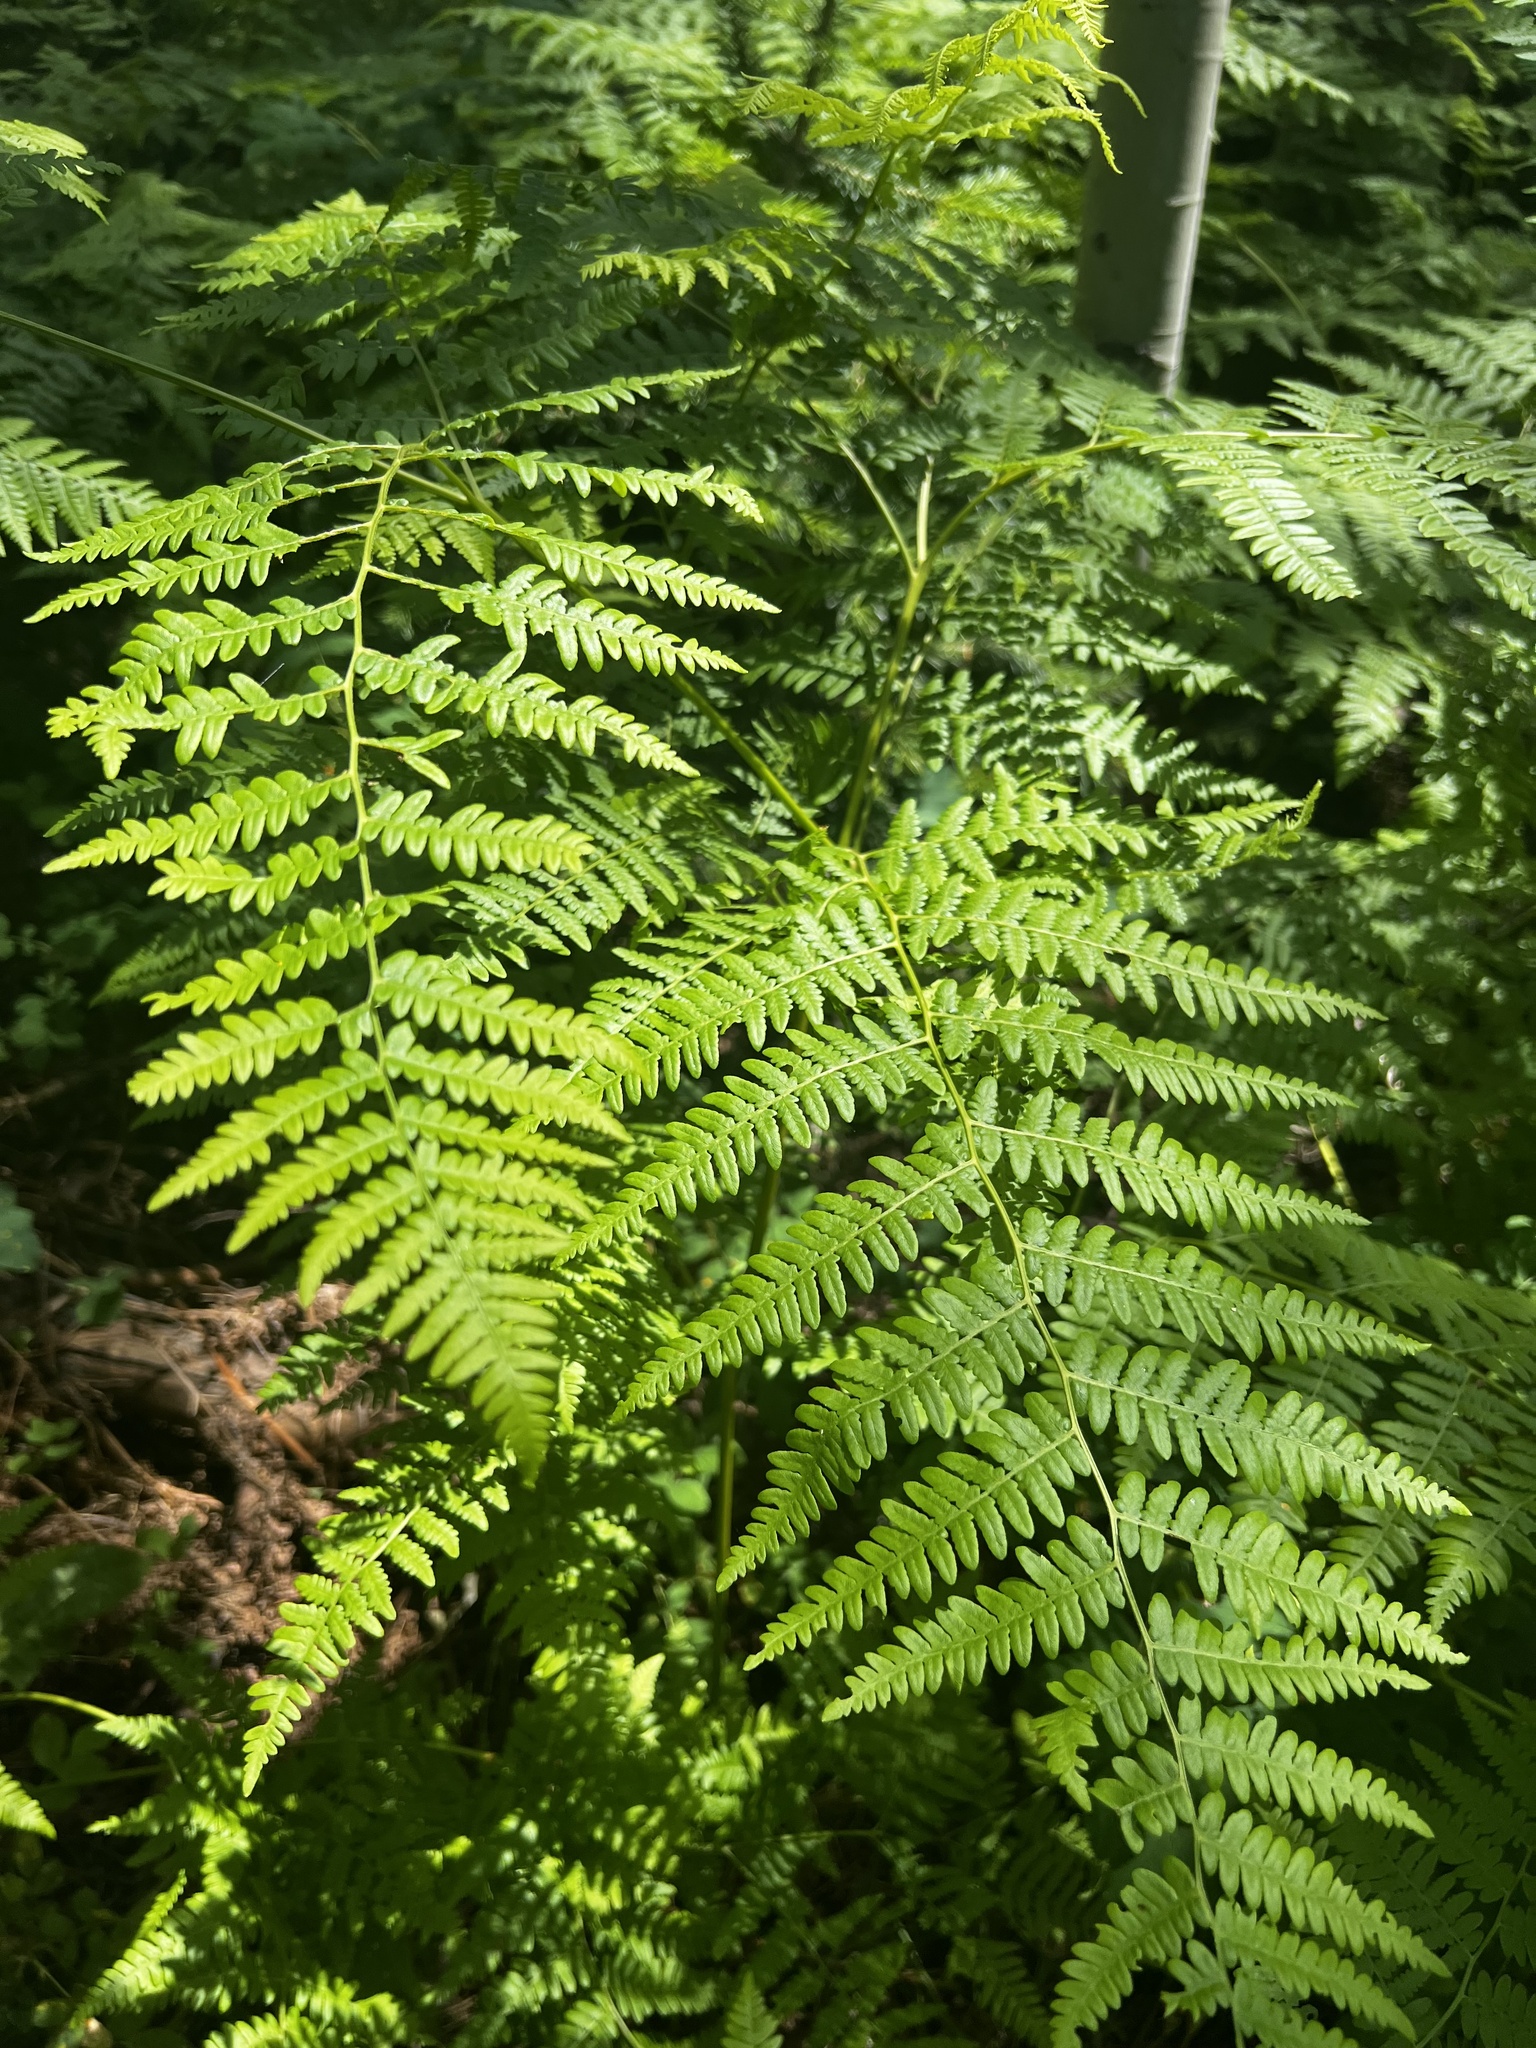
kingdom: Plantae
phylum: Tracheophyta
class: Polypodiopsida
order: Polypodiales
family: Dennstaedtiaceae
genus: Pteridium
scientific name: Pteridium aquilinum
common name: Bracken
